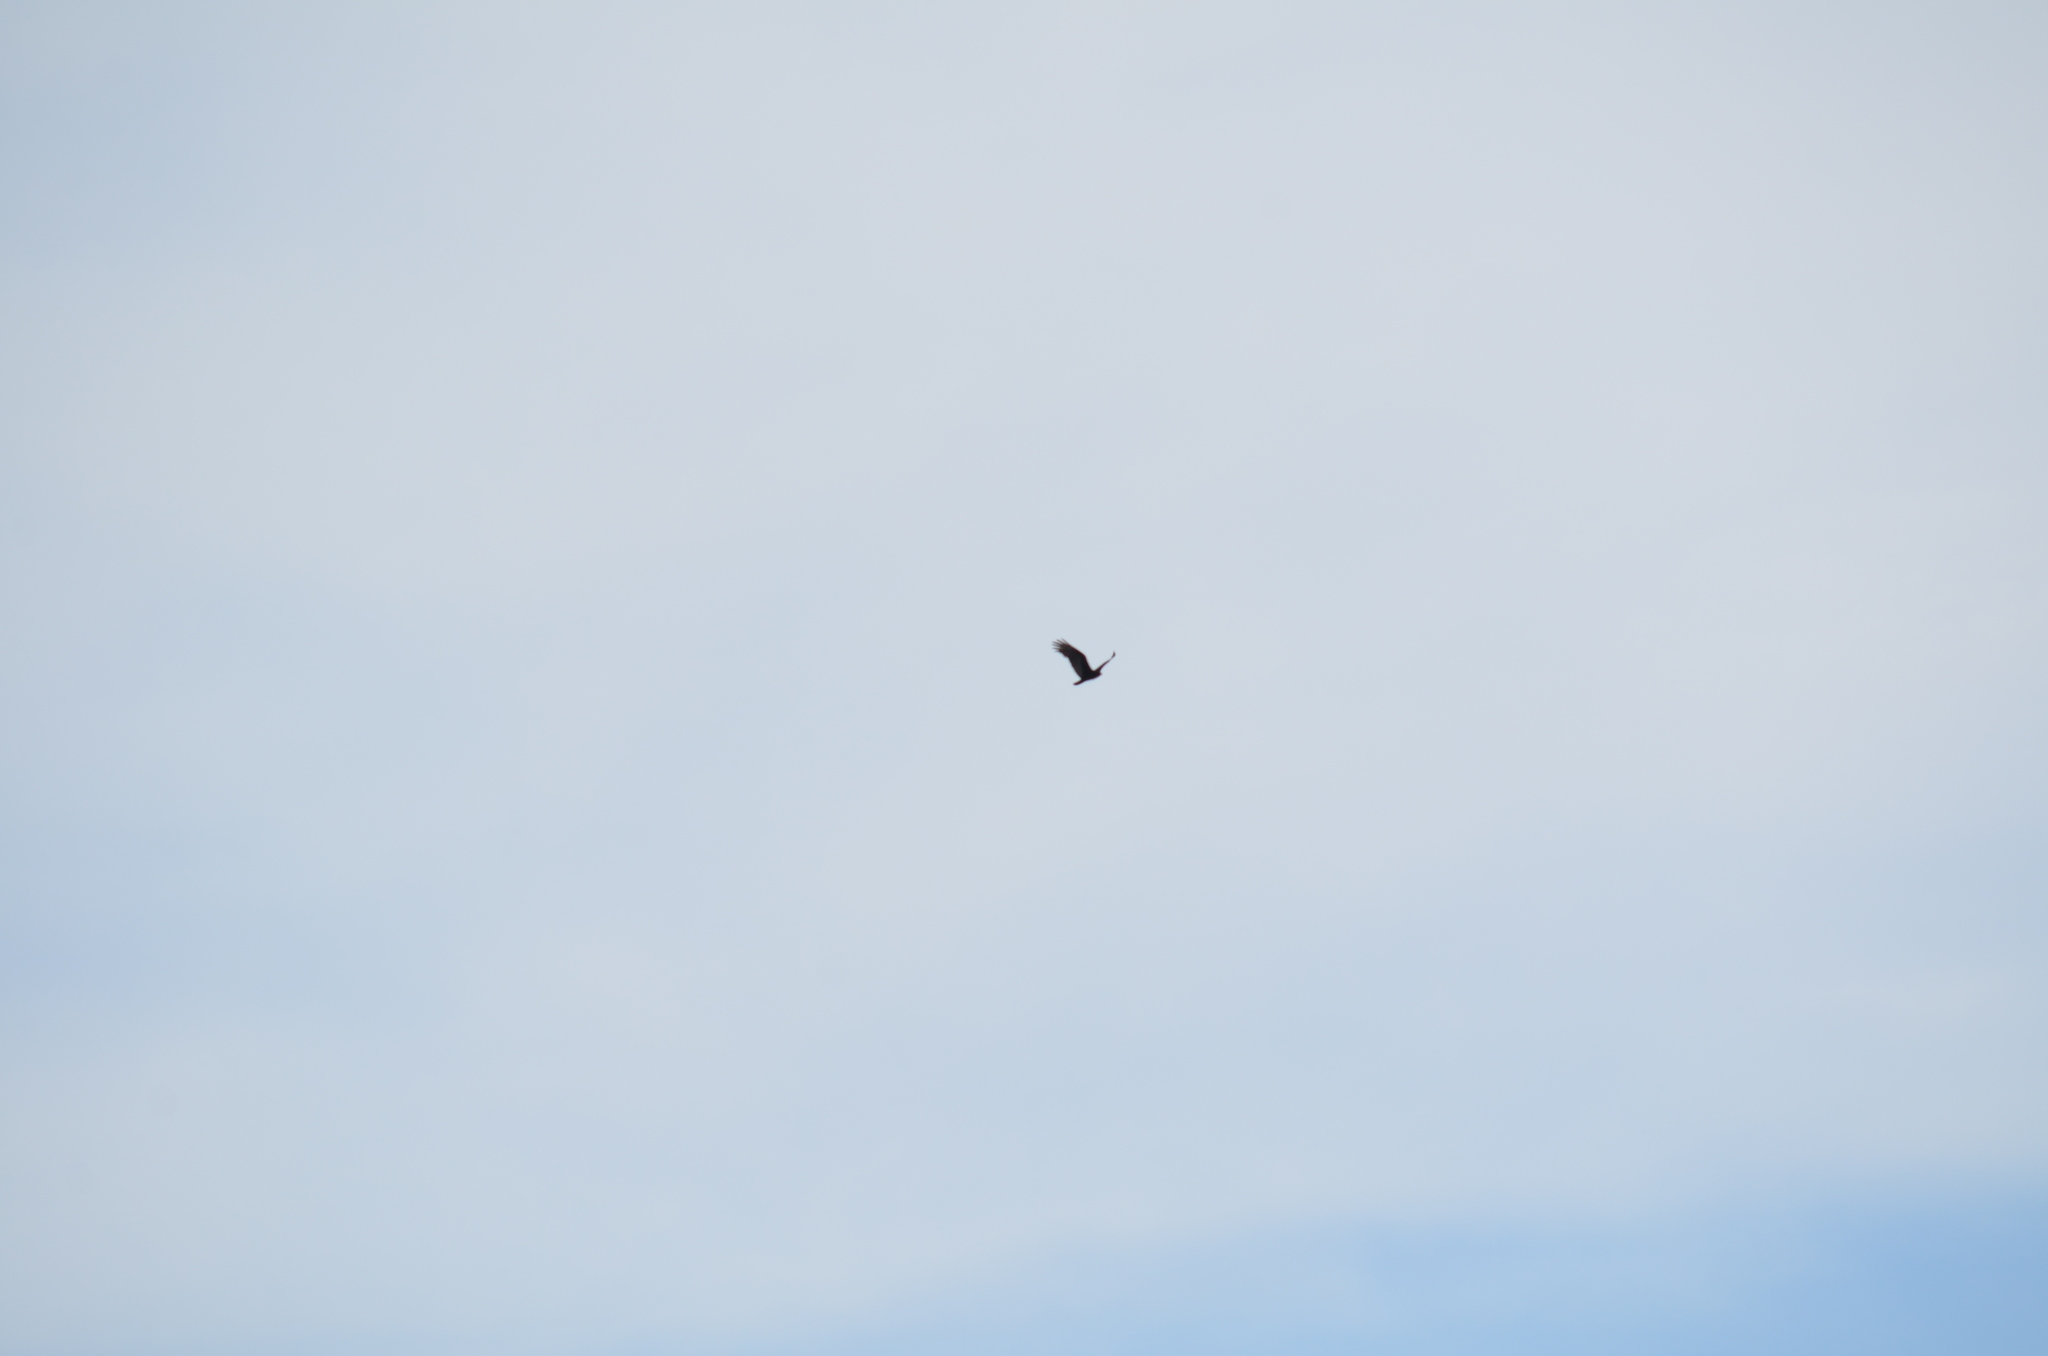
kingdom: Animalia
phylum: Chordata
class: Aves
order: Accipitriformes
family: Cathartidae
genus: Cathartes
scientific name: Cathartes aura
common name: Turkey vulture
